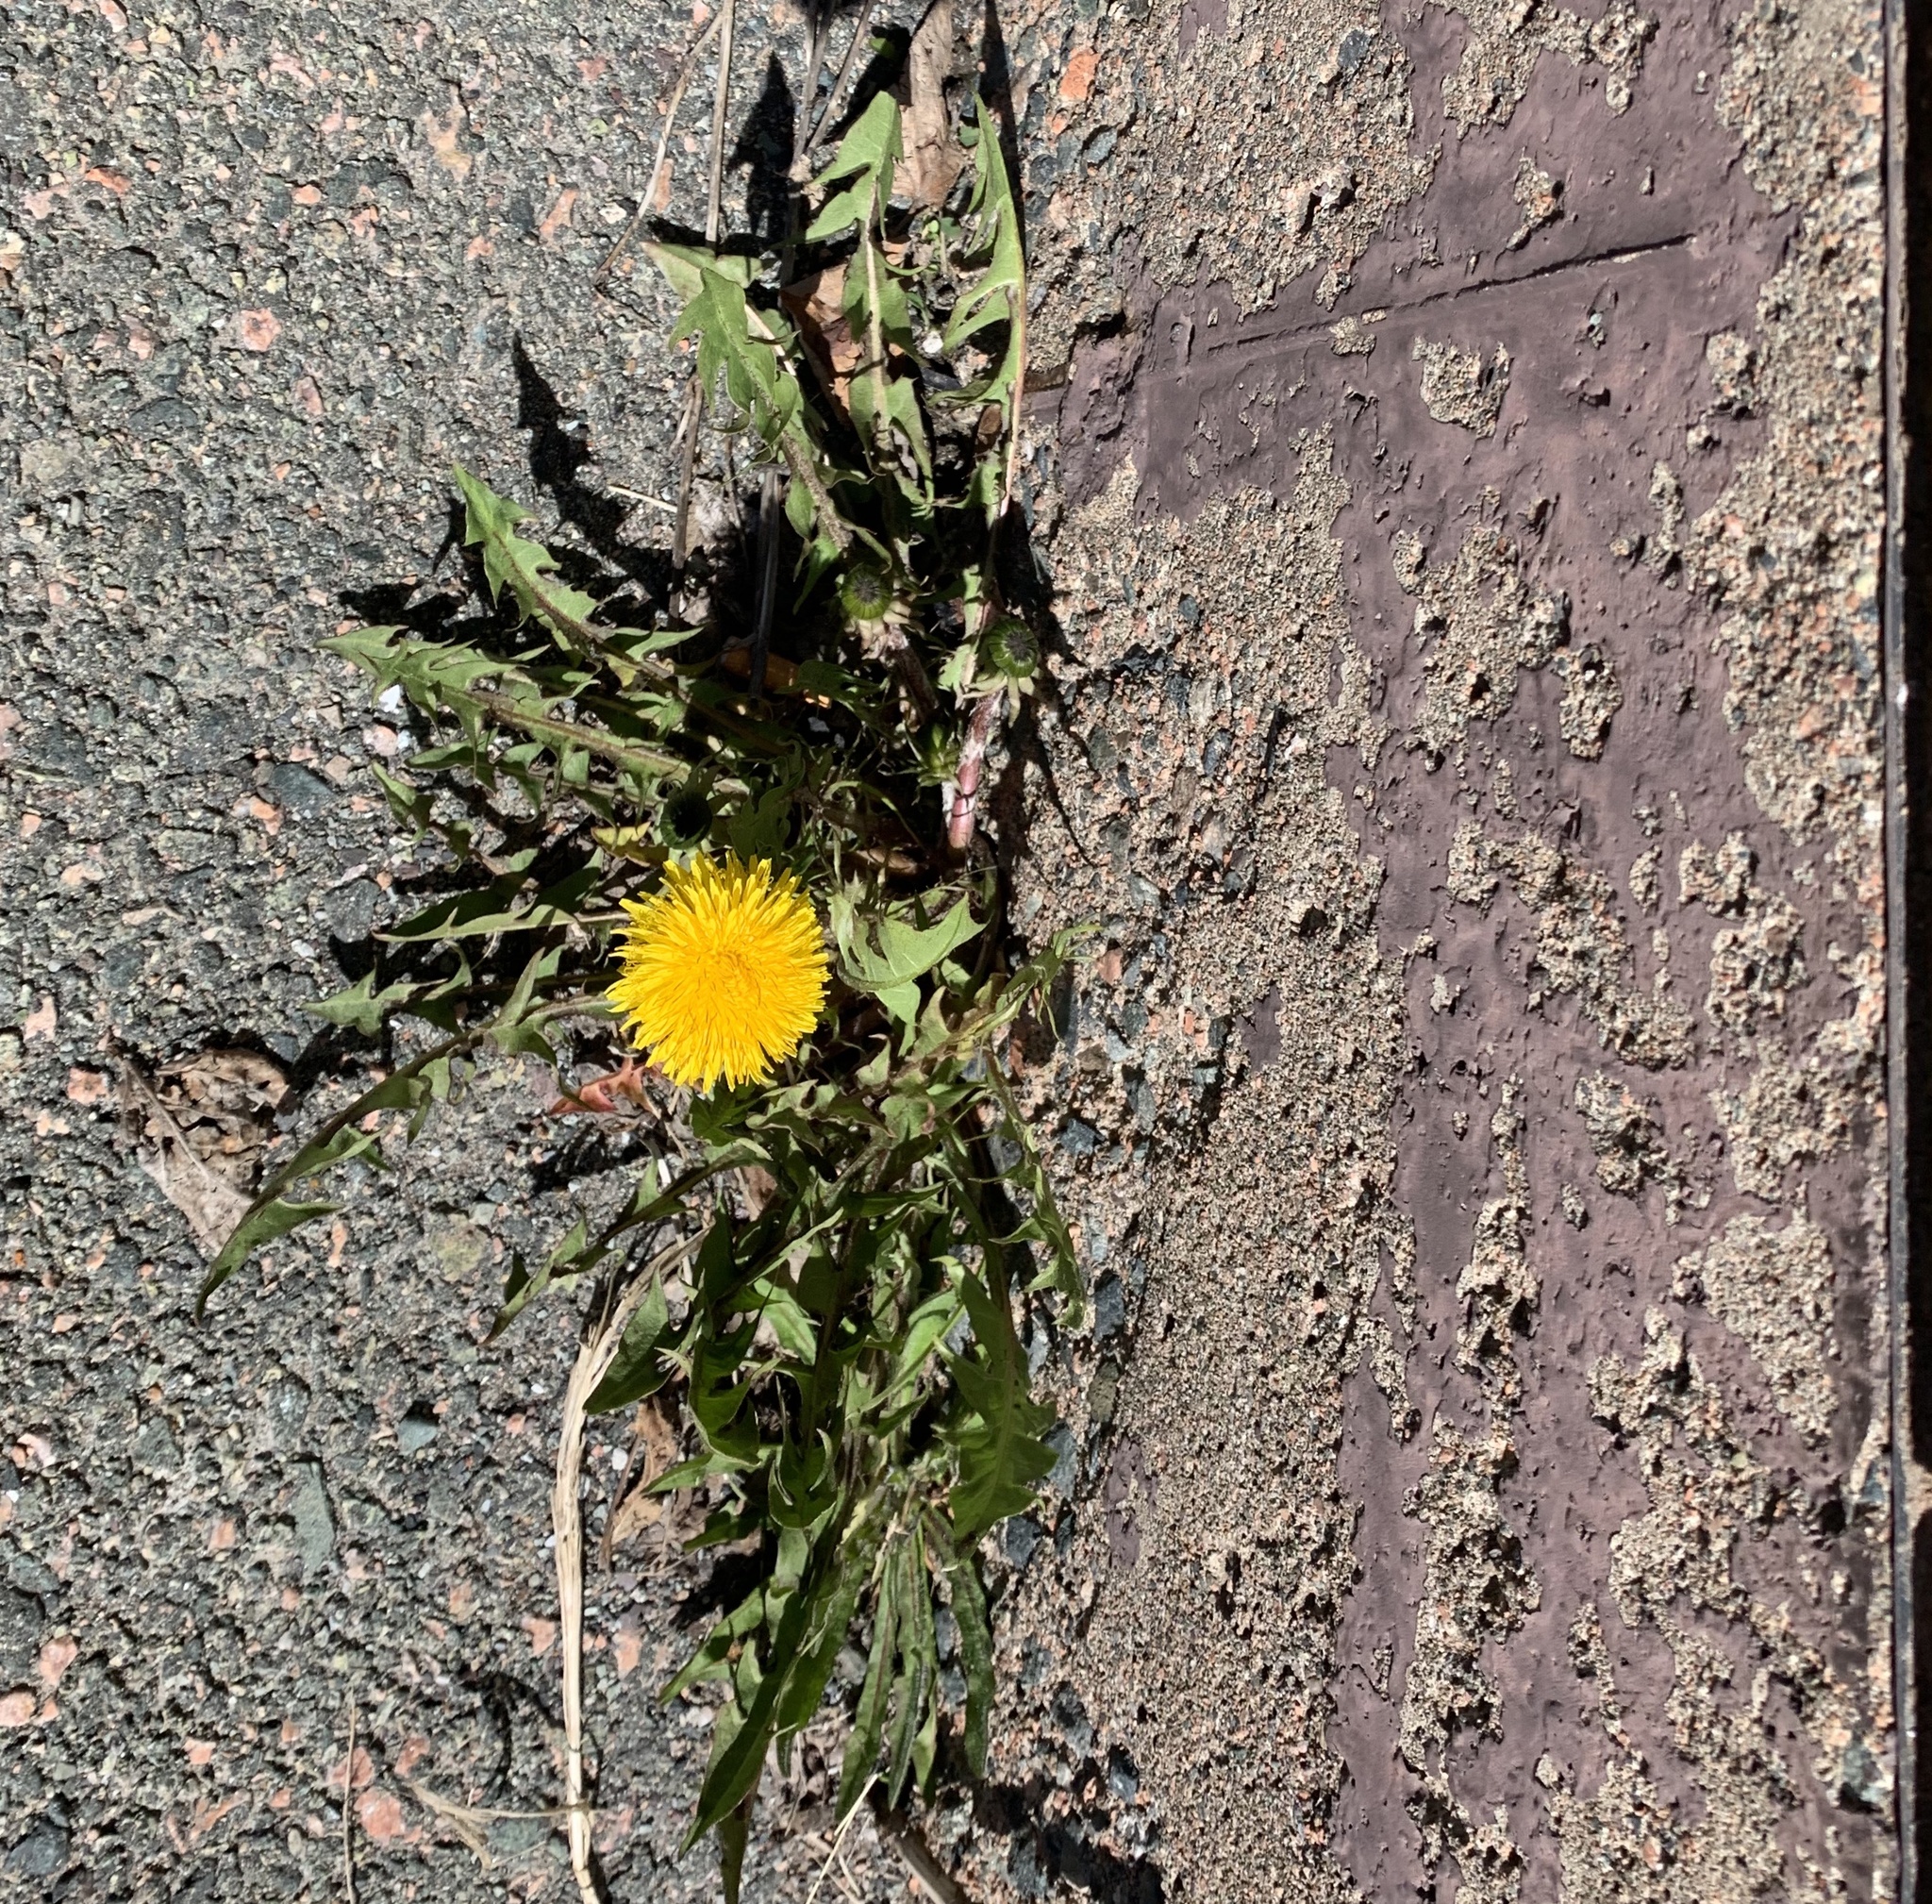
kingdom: Plantae
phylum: Tracheophyta
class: Magnoliopsida
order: Asterales
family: Asteraceae
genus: Taraxacum
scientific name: Taraxacum officinale
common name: Common dandelion
